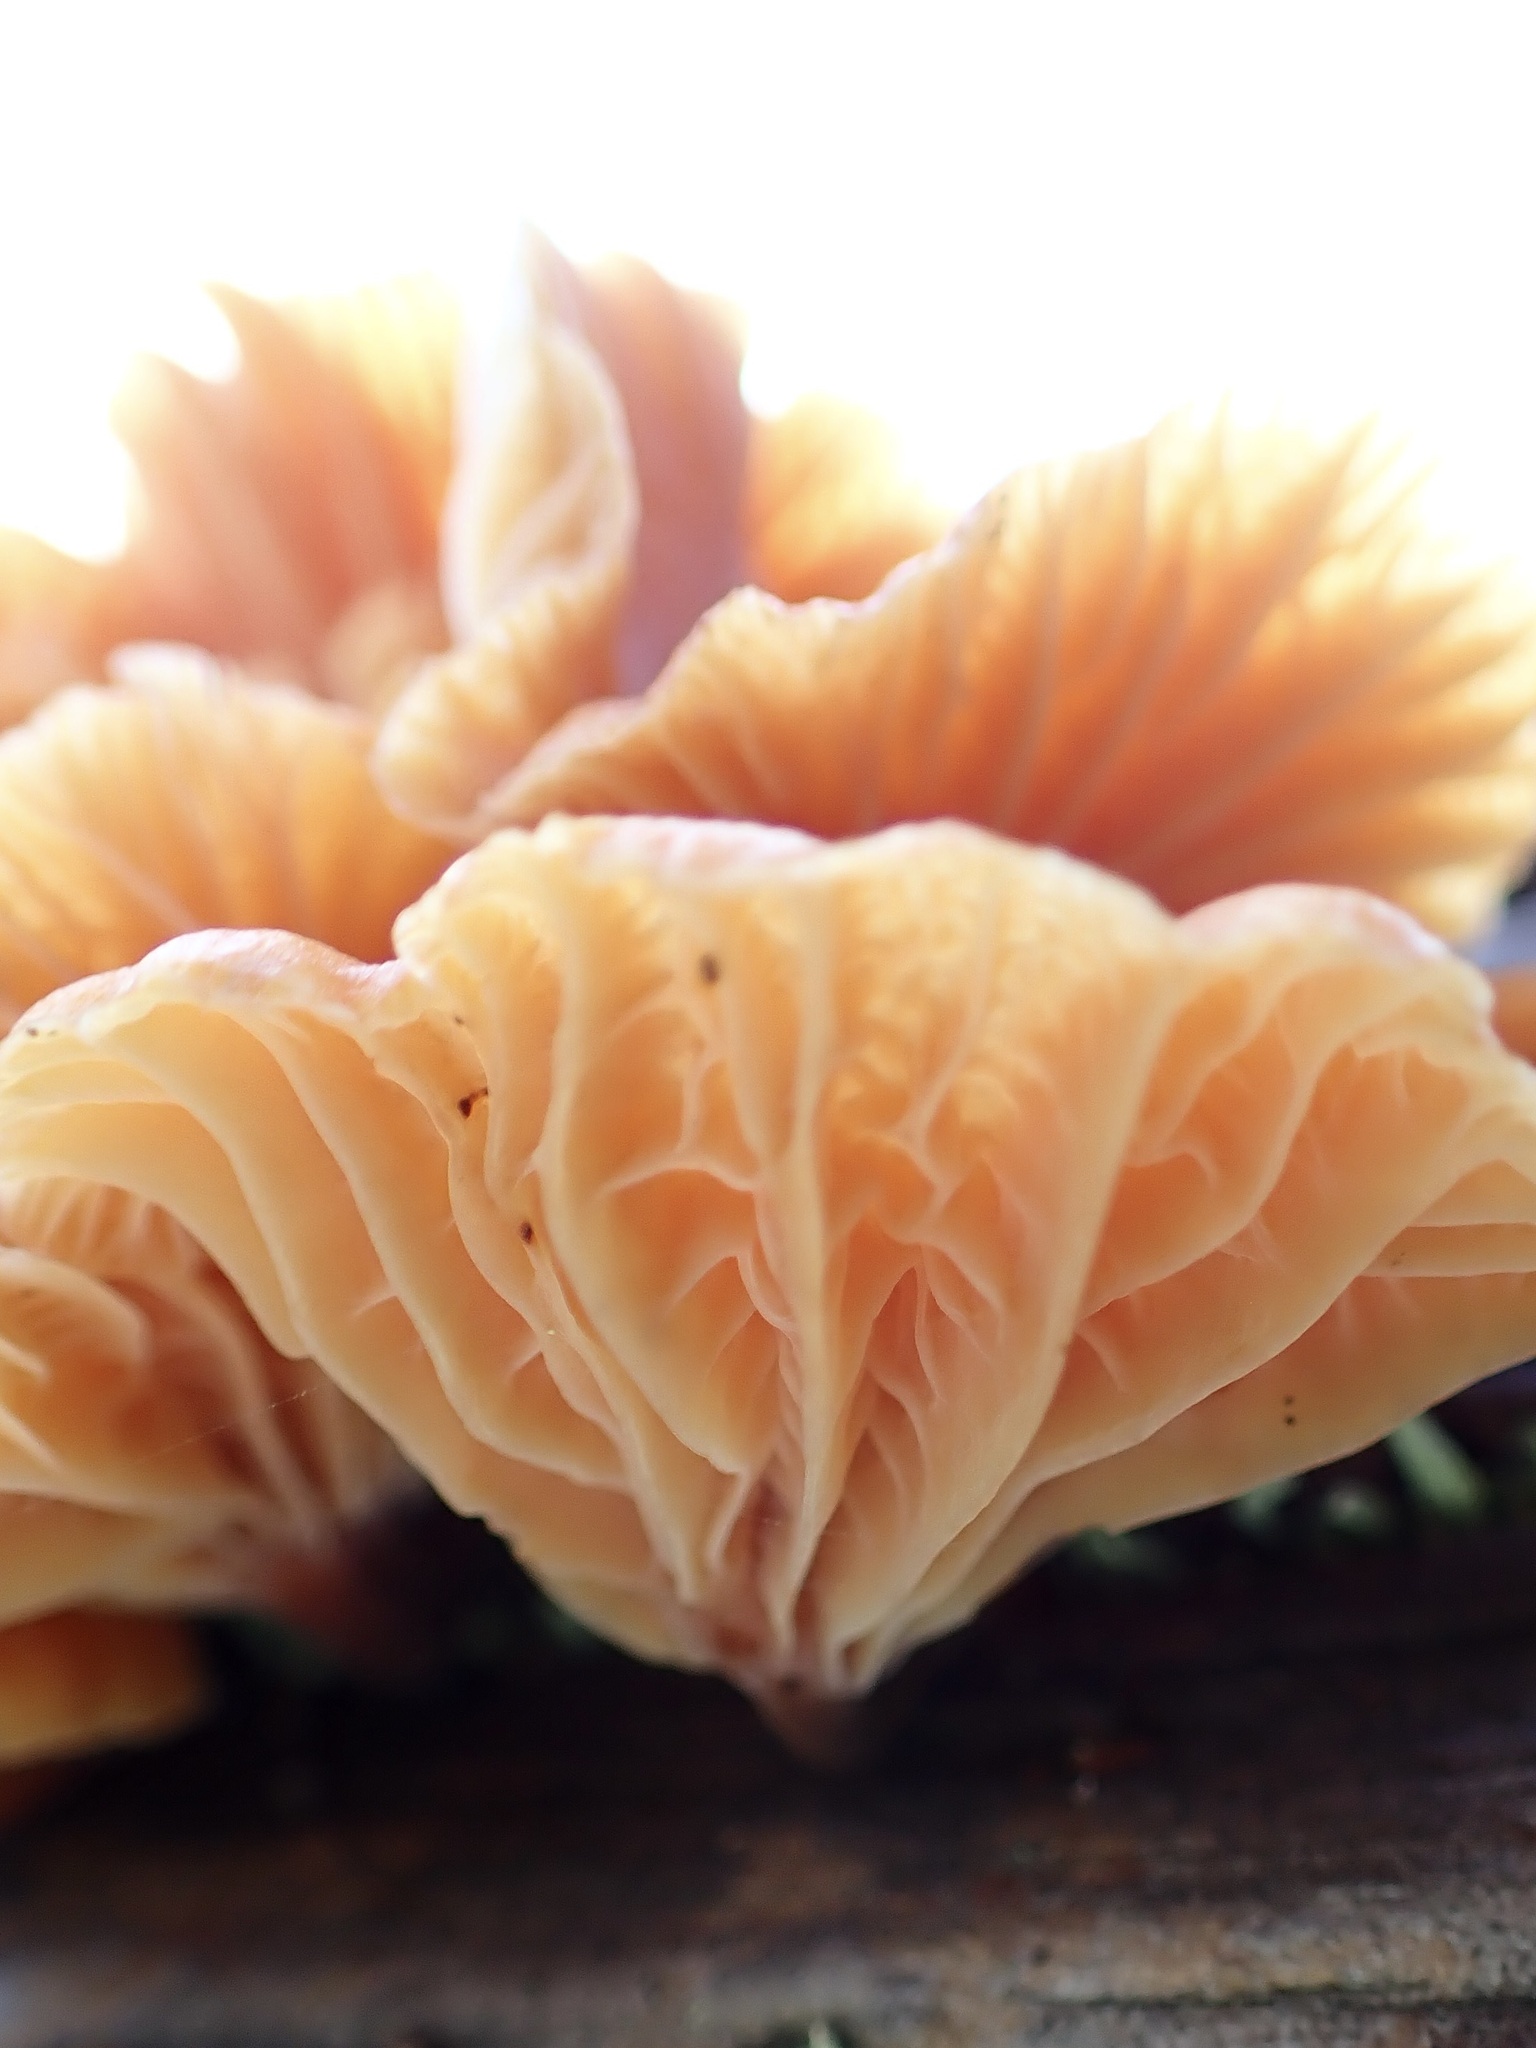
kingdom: Fungi
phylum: Basidiomycota
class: Agaricomycetes
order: Agaricales
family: Mycenaceae
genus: Xeromphalina
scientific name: Xeromphalina campanella
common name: Pinewood gingertail
